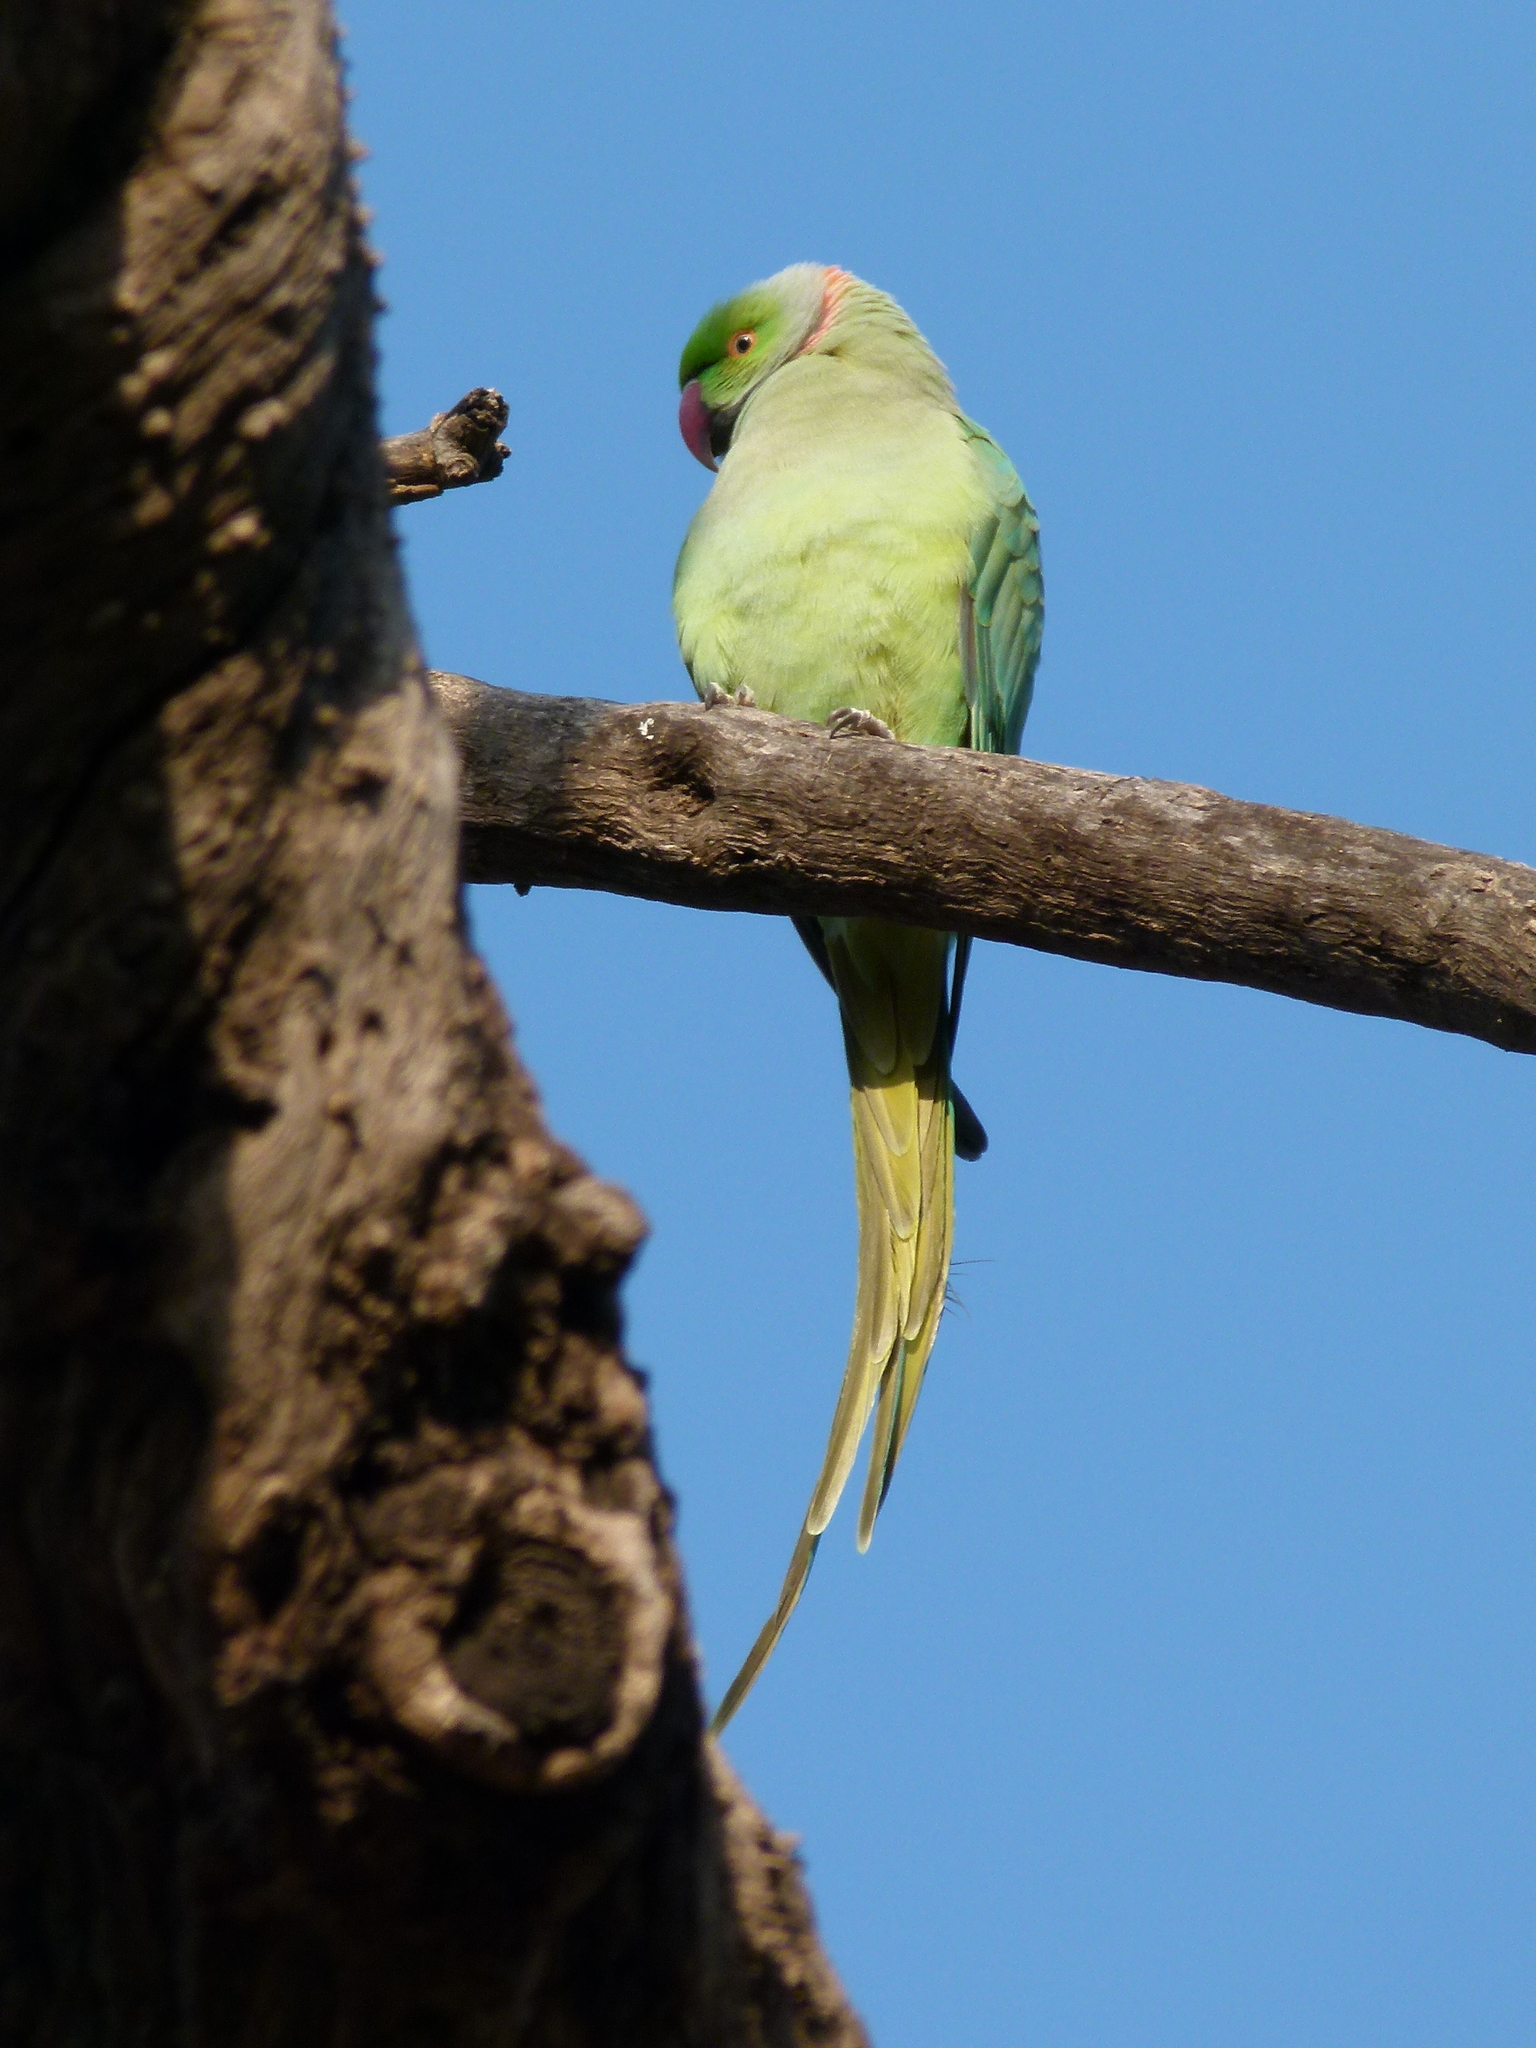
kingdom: Animalia
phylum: Chordata
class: Aves
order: Psittaciformes
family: Psittacidae
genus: Psittacula
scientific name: Psittacula krameri
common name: Rose-ringed parakeet
